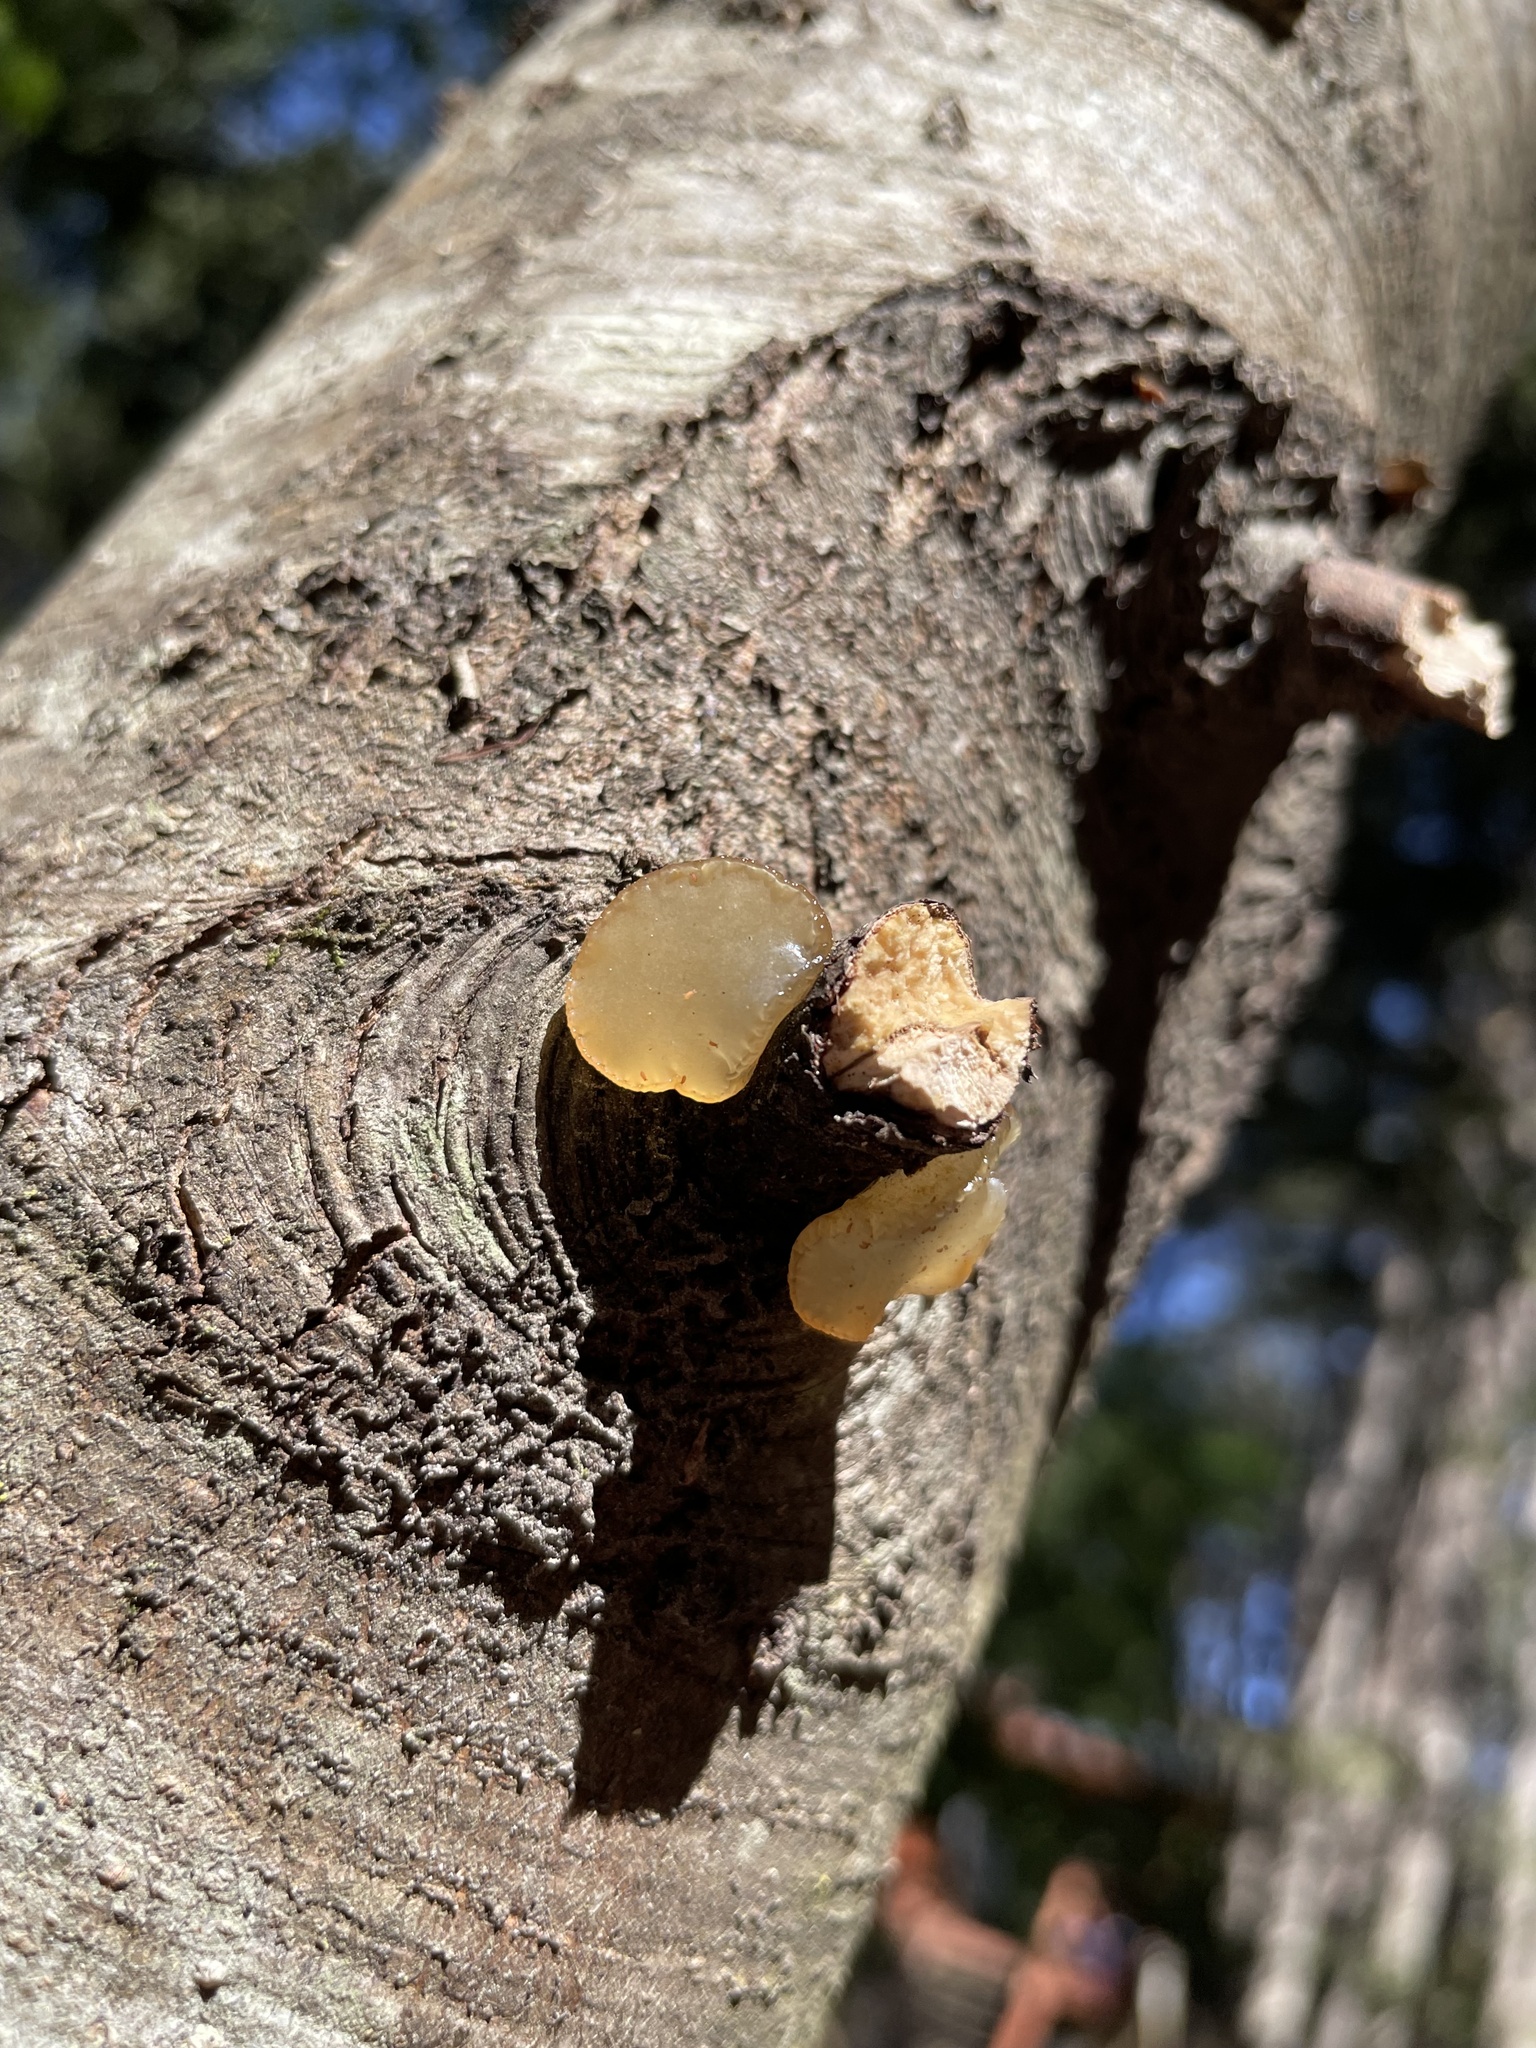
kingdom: Fungi
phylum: Basidiomycota
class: Dacrymycetes
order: Dacrymycetales
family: Dacrymycetaceae
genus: Guepiniopsis
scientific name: Guepiniopsis alpina
